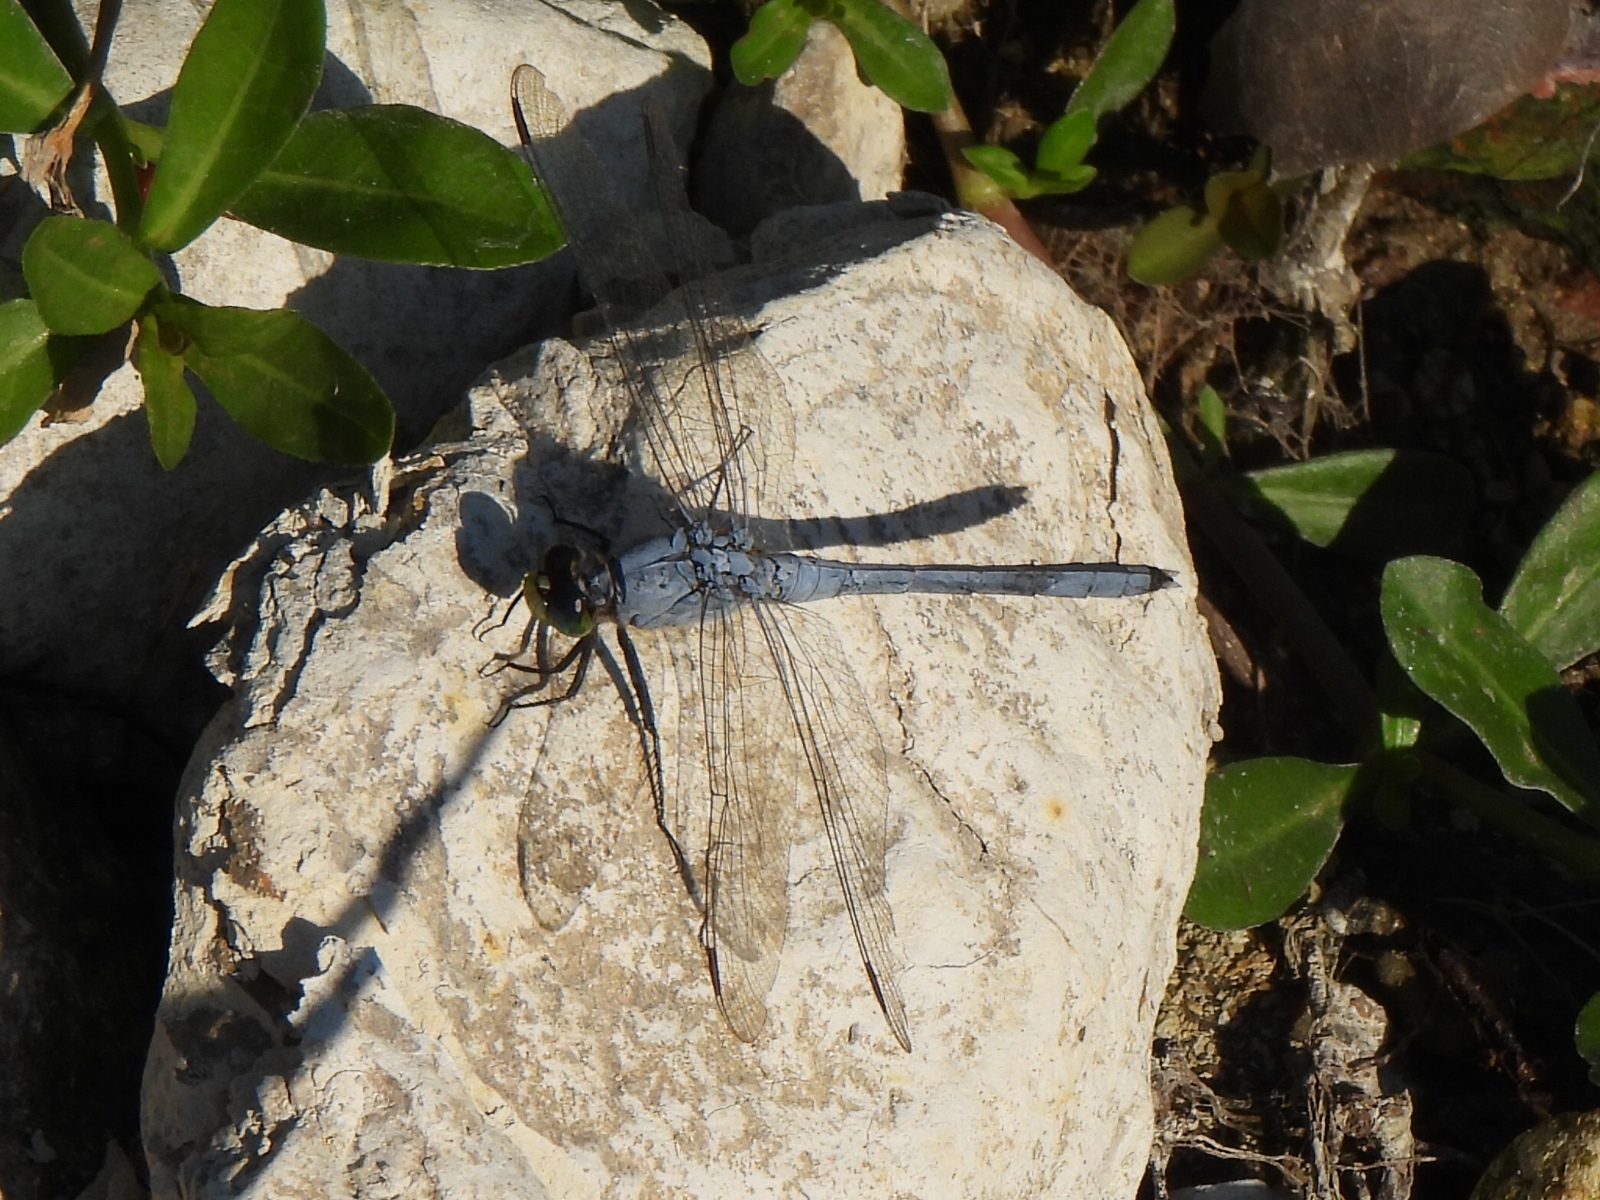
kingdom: Animalia
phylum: Arthropoda
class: Insecta
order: Odonata
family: Libellulidae
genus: Erythemis
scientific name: Erythemis simplicicollis
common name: Eastern pondhawk
